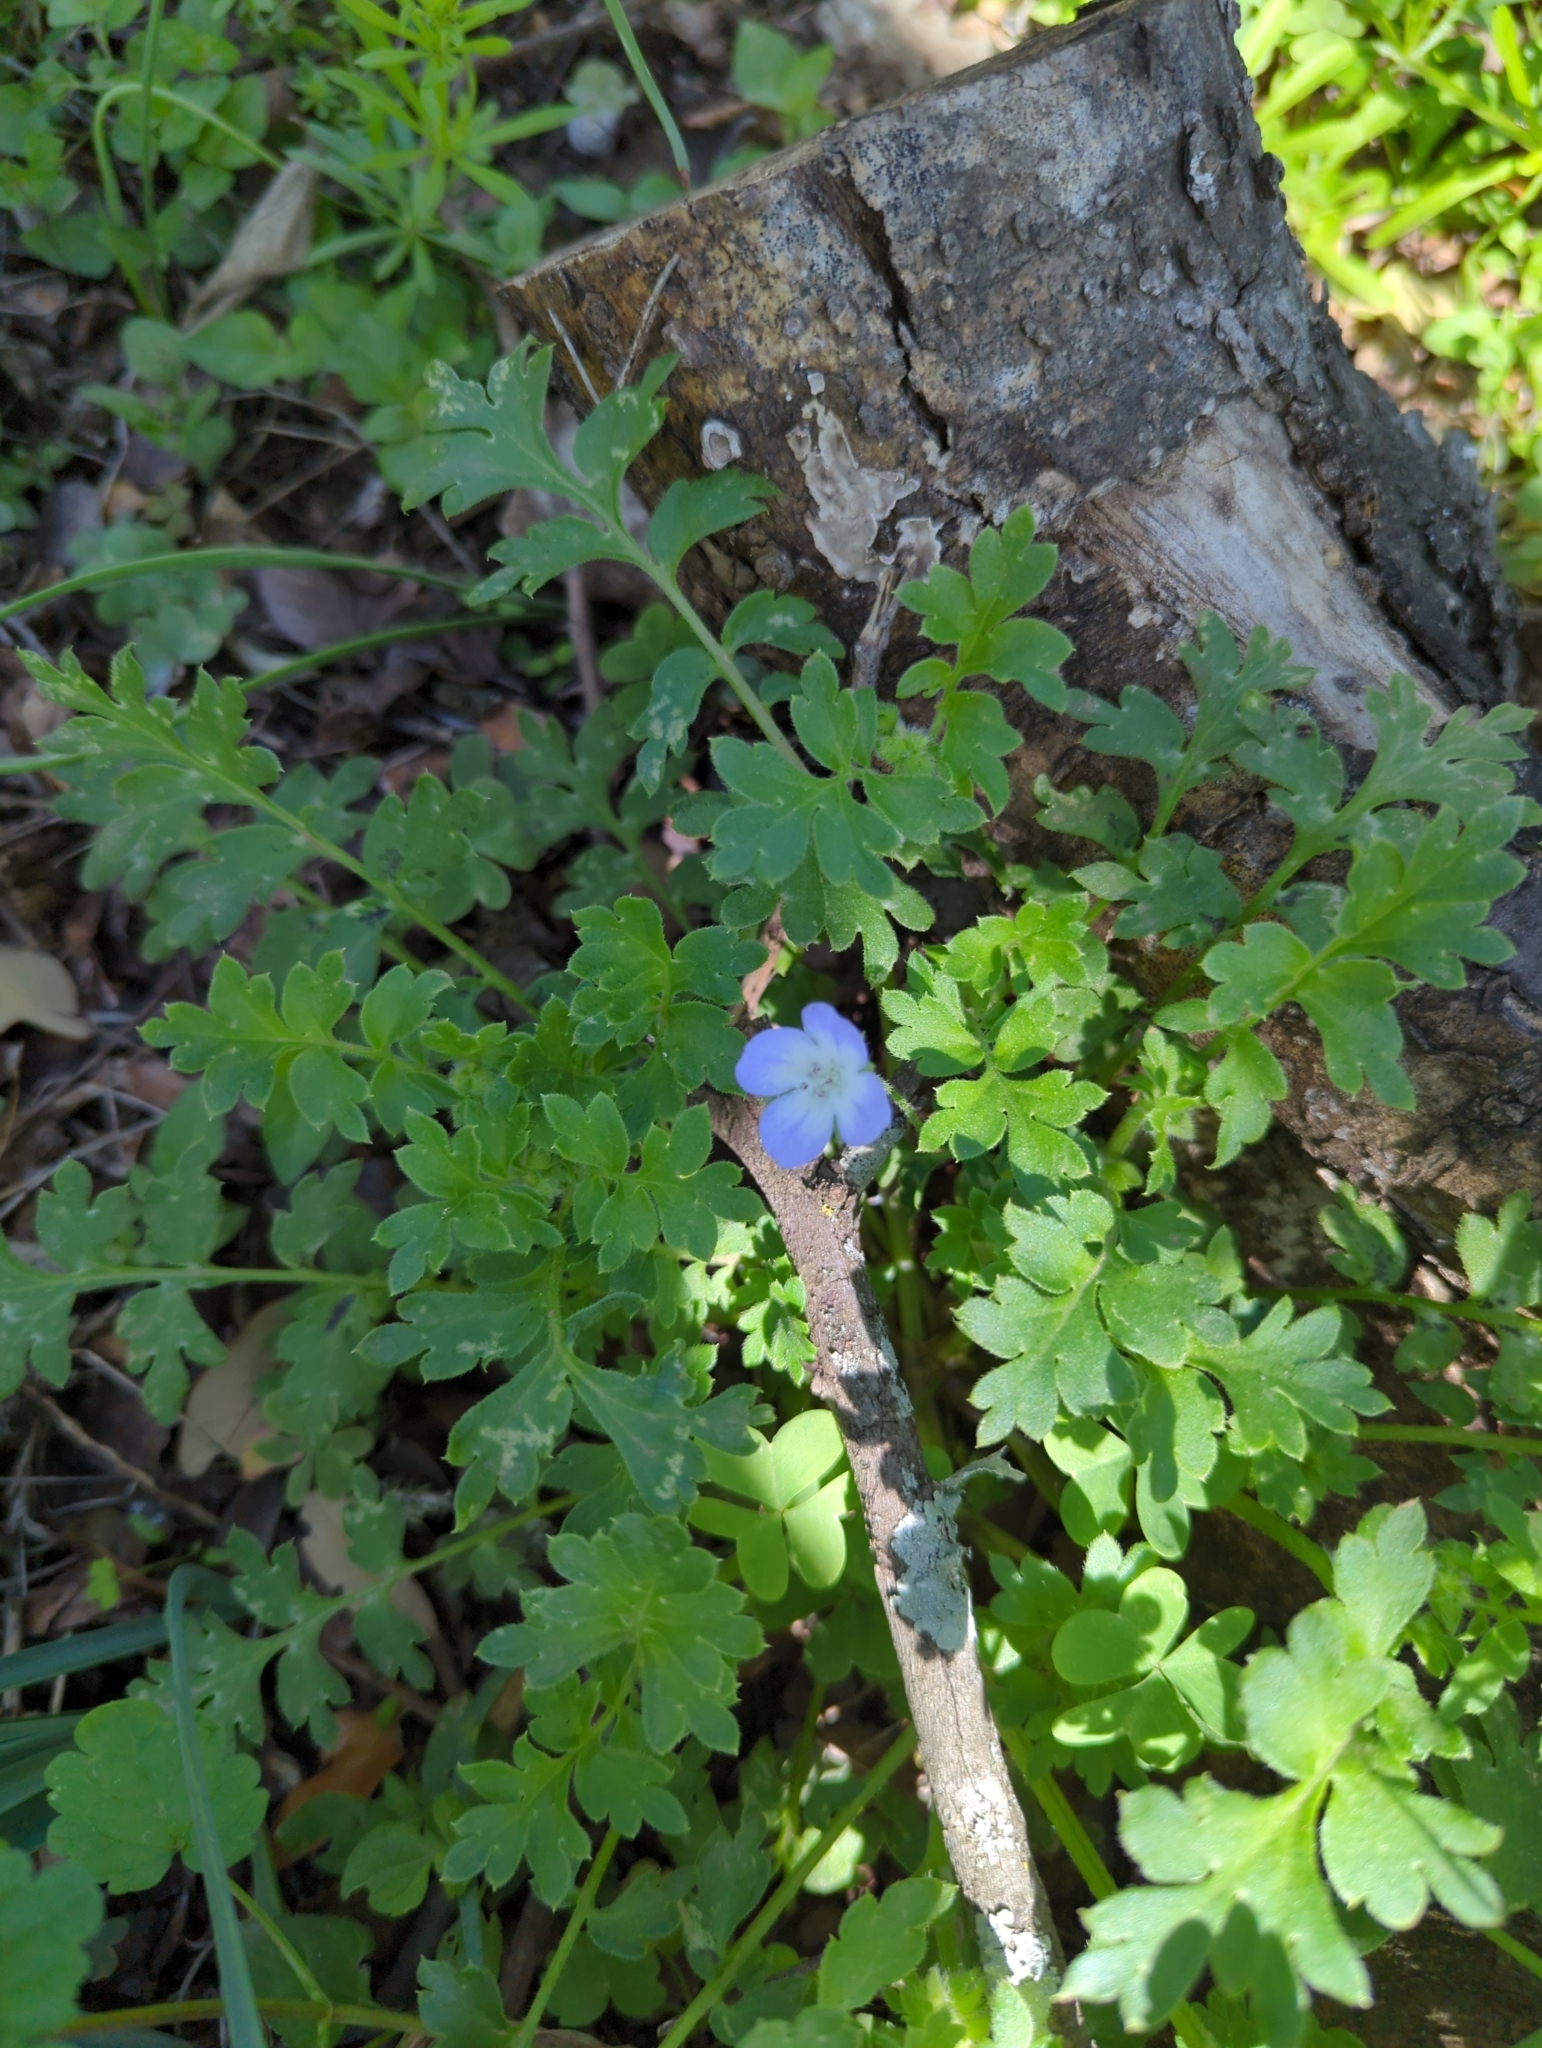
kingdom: Plantae
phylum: Tracheophyta
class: Magnoliopsida
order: Boraginales
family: Hydrophyllaceae
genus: Nemophila
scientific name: Nemophila phacelioides
